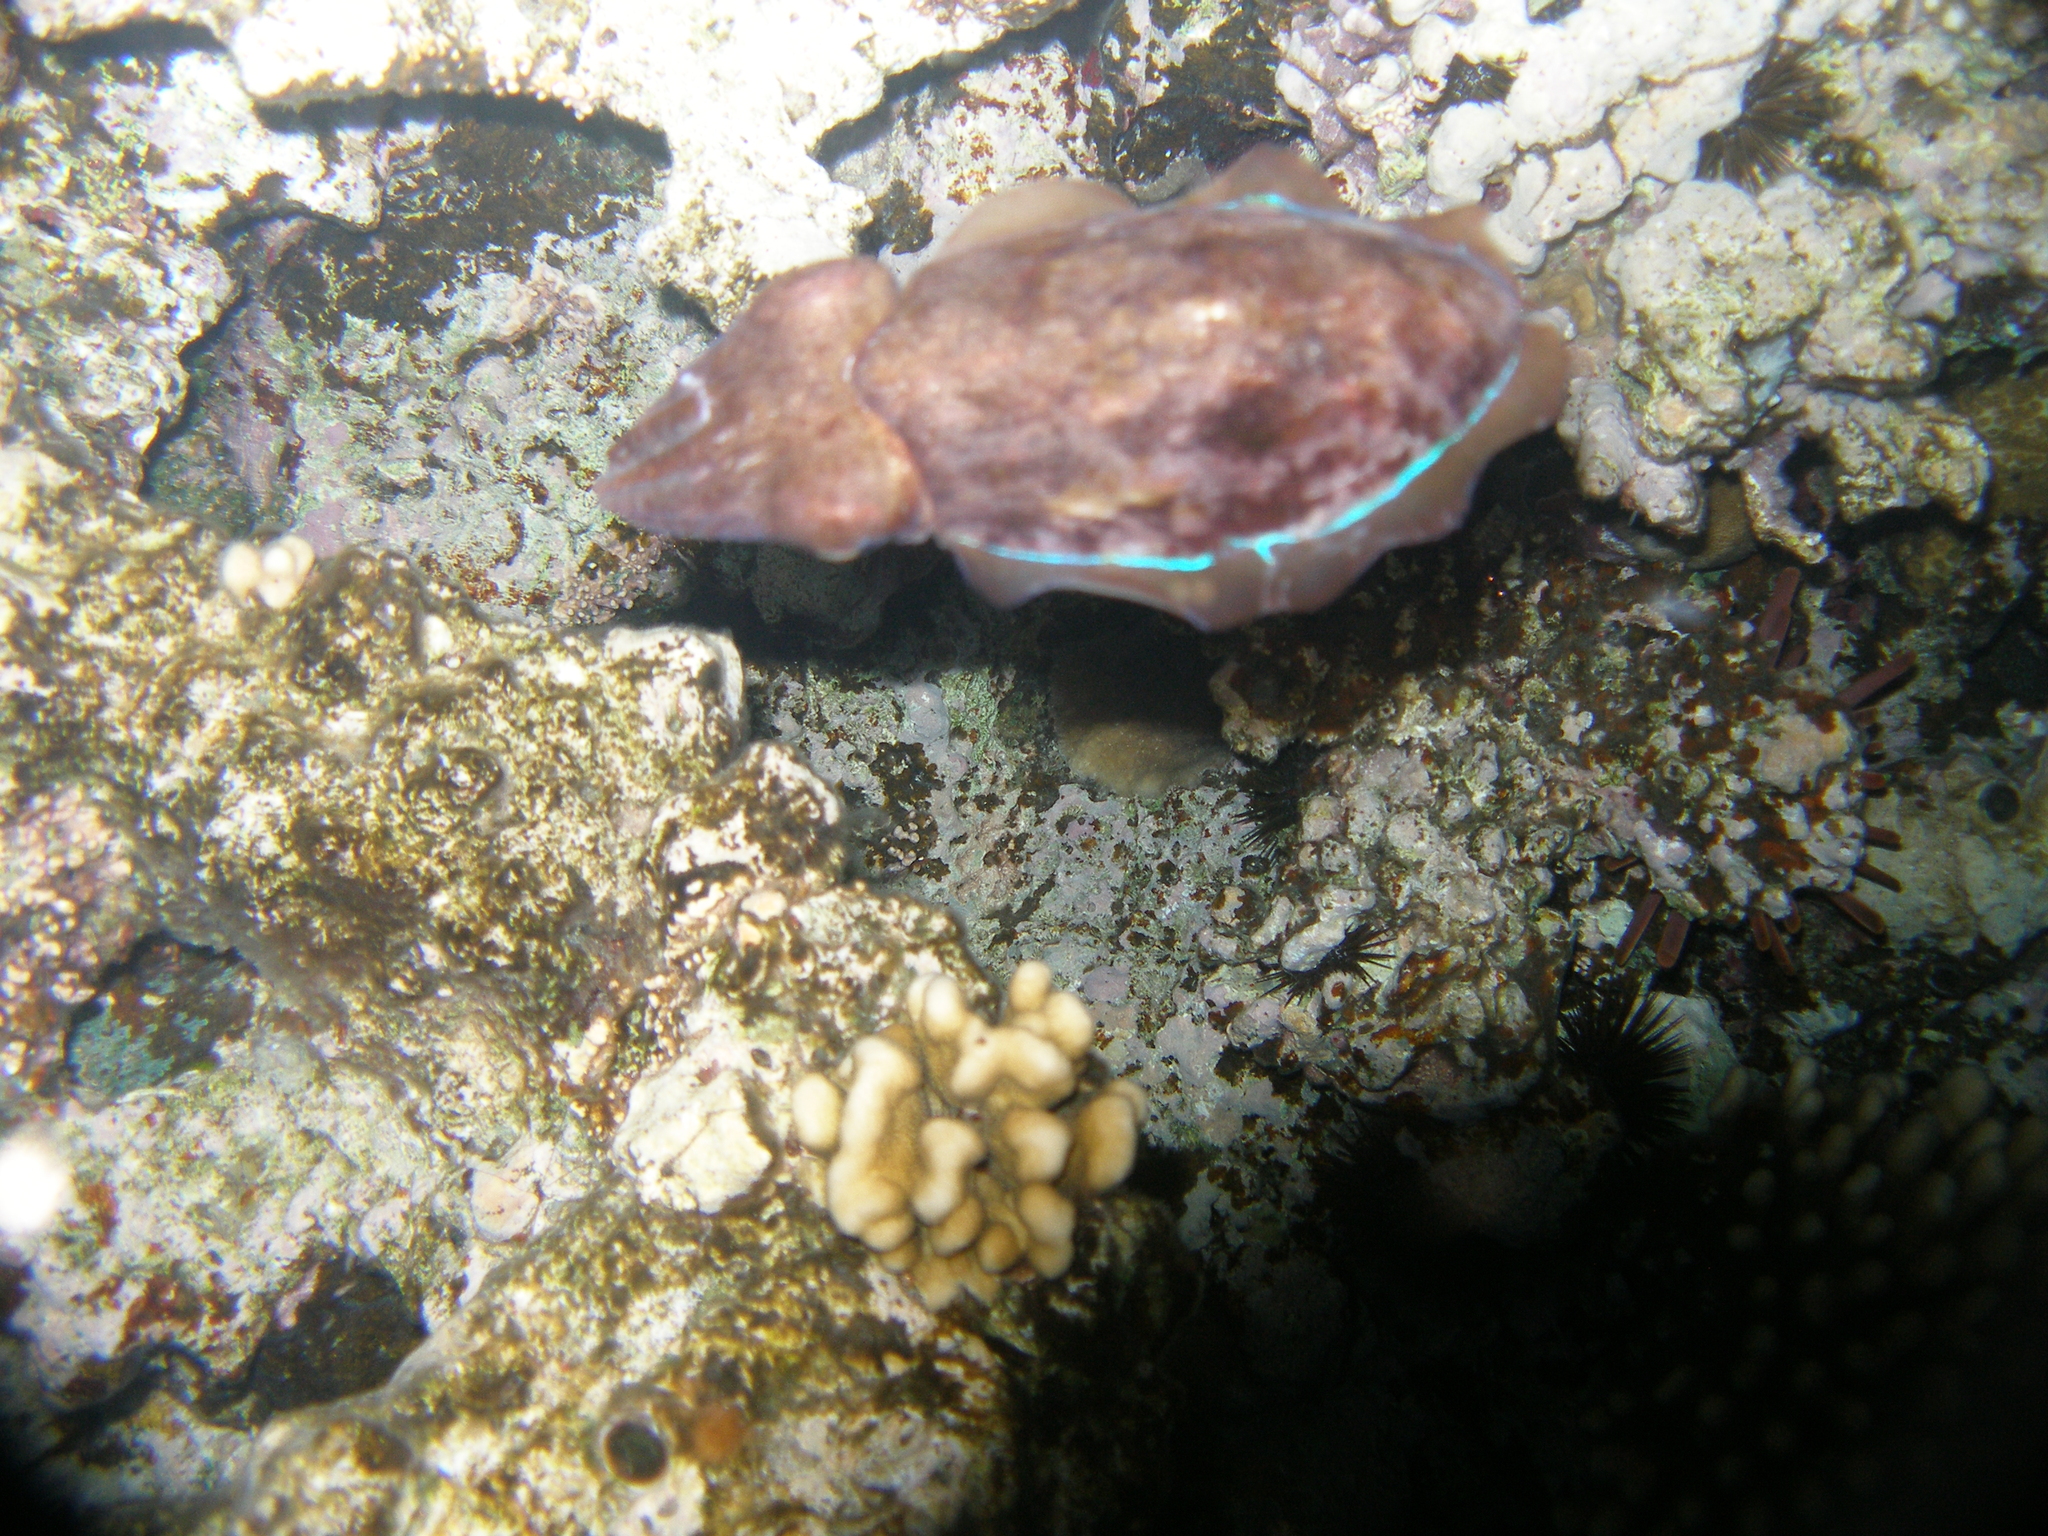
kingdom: Animalia
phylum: Mollusca
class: Cephalopoda
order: Sepiida
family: Sepiidae
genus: Acanthosepion
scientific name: Acanthosepion pharaonis
